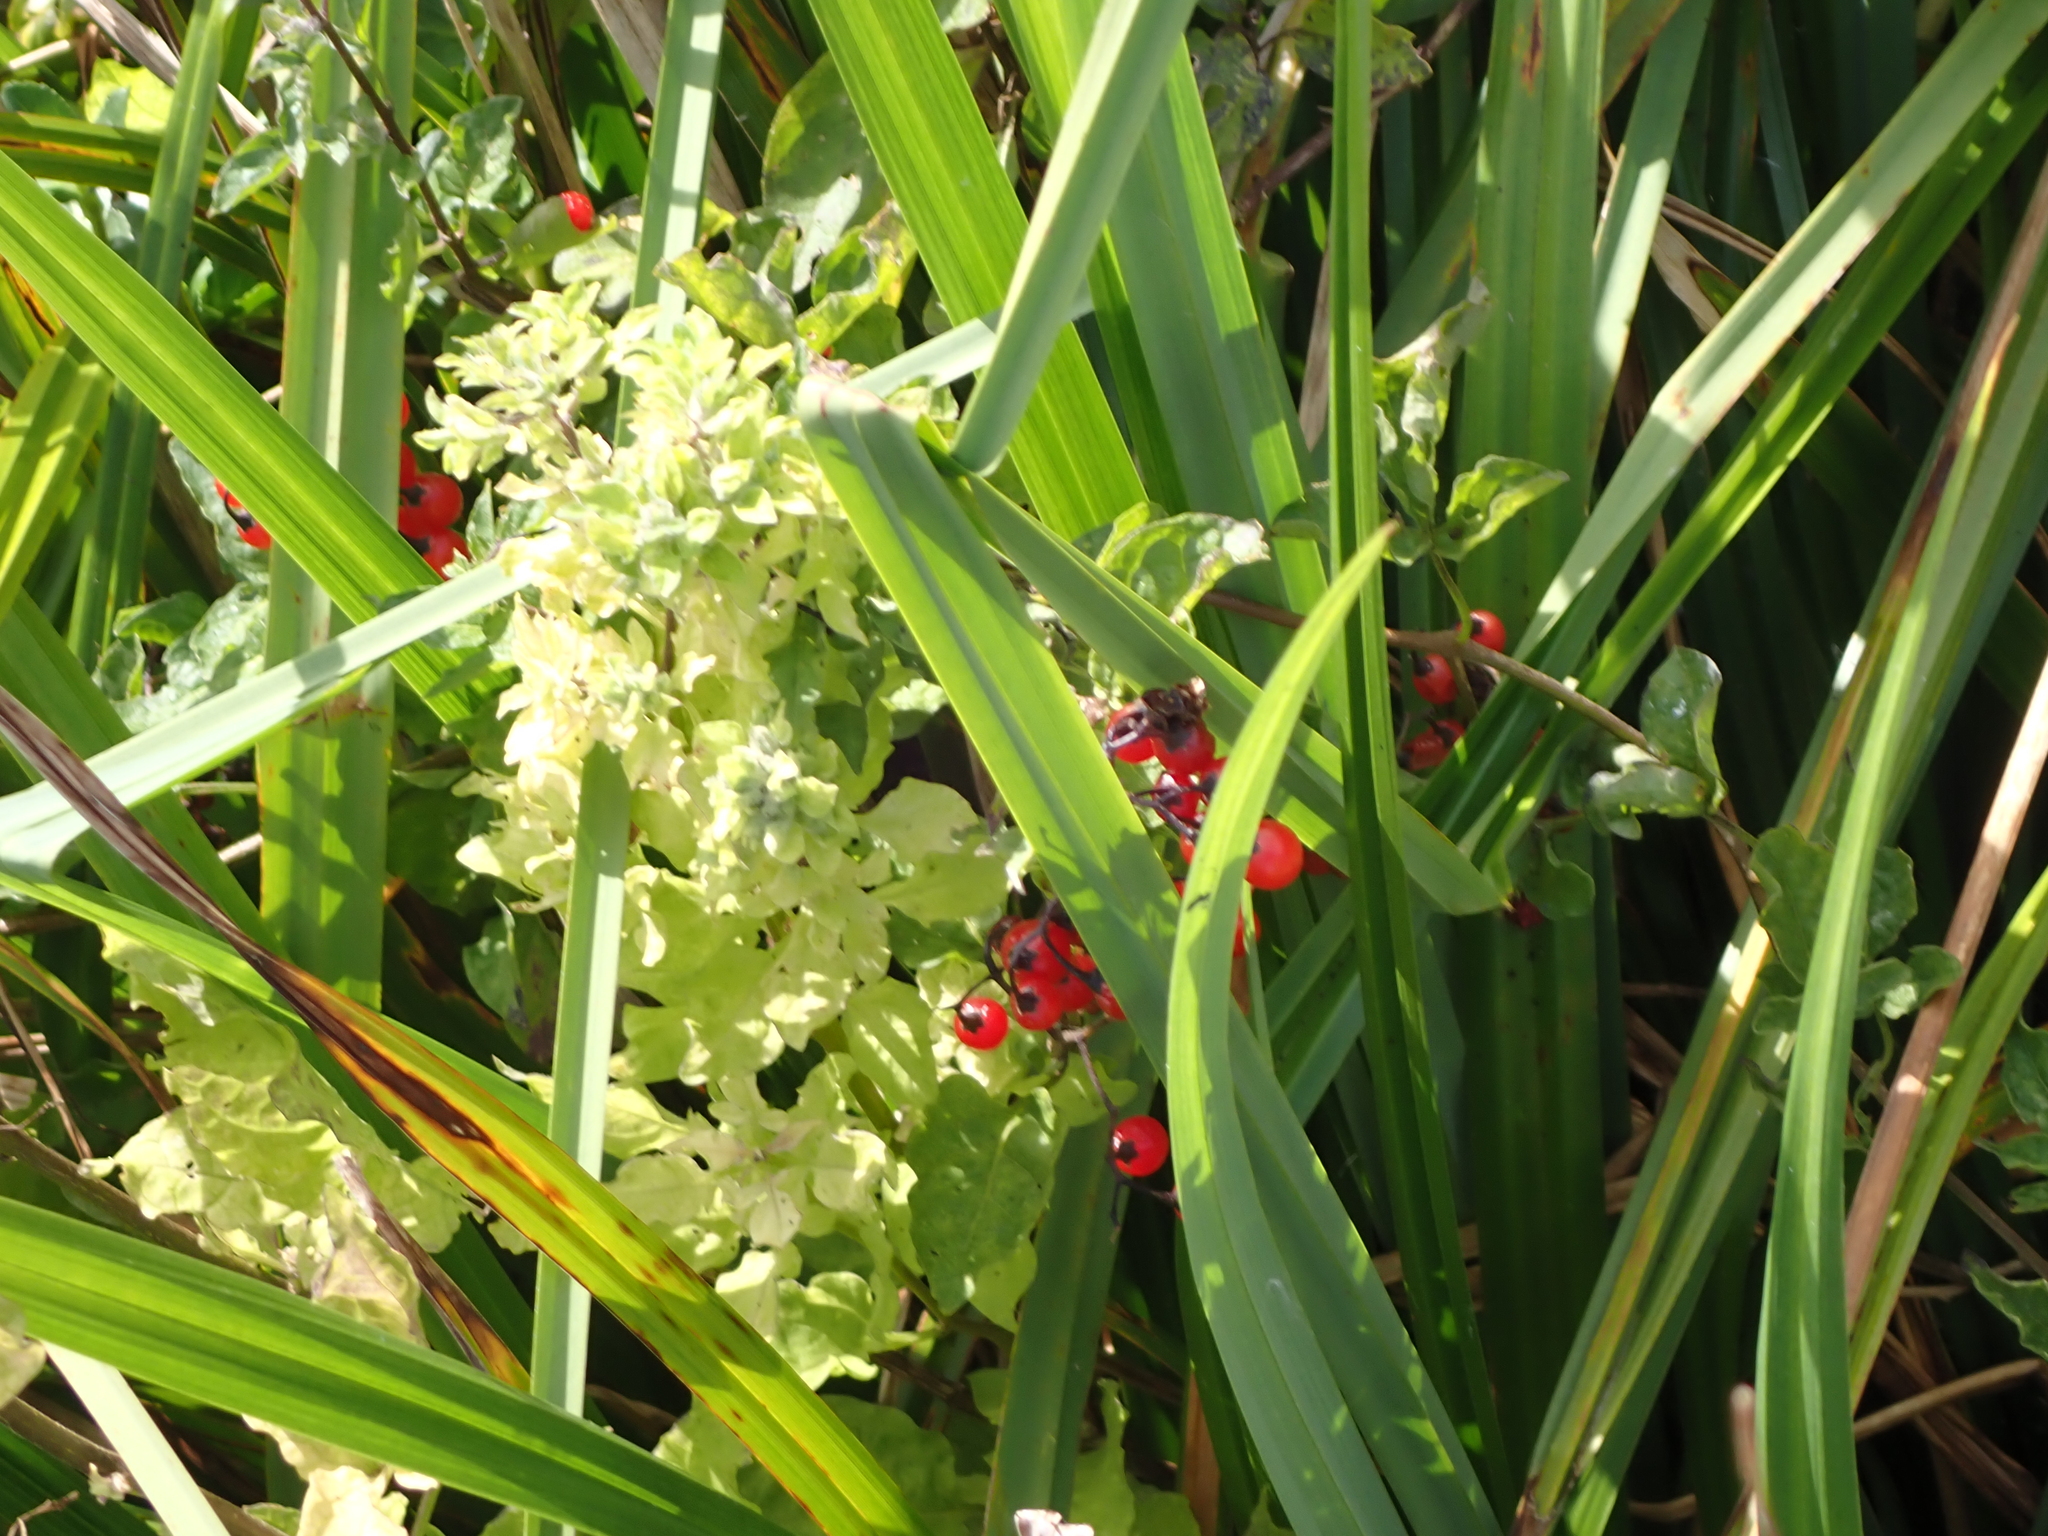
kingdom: Plantae
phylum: Tracheophyta
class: Magnoliopsida
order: Solanales
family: Solanaceae
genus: Solanum
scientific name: Solanum dulcamara
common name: Climbing nightshade
